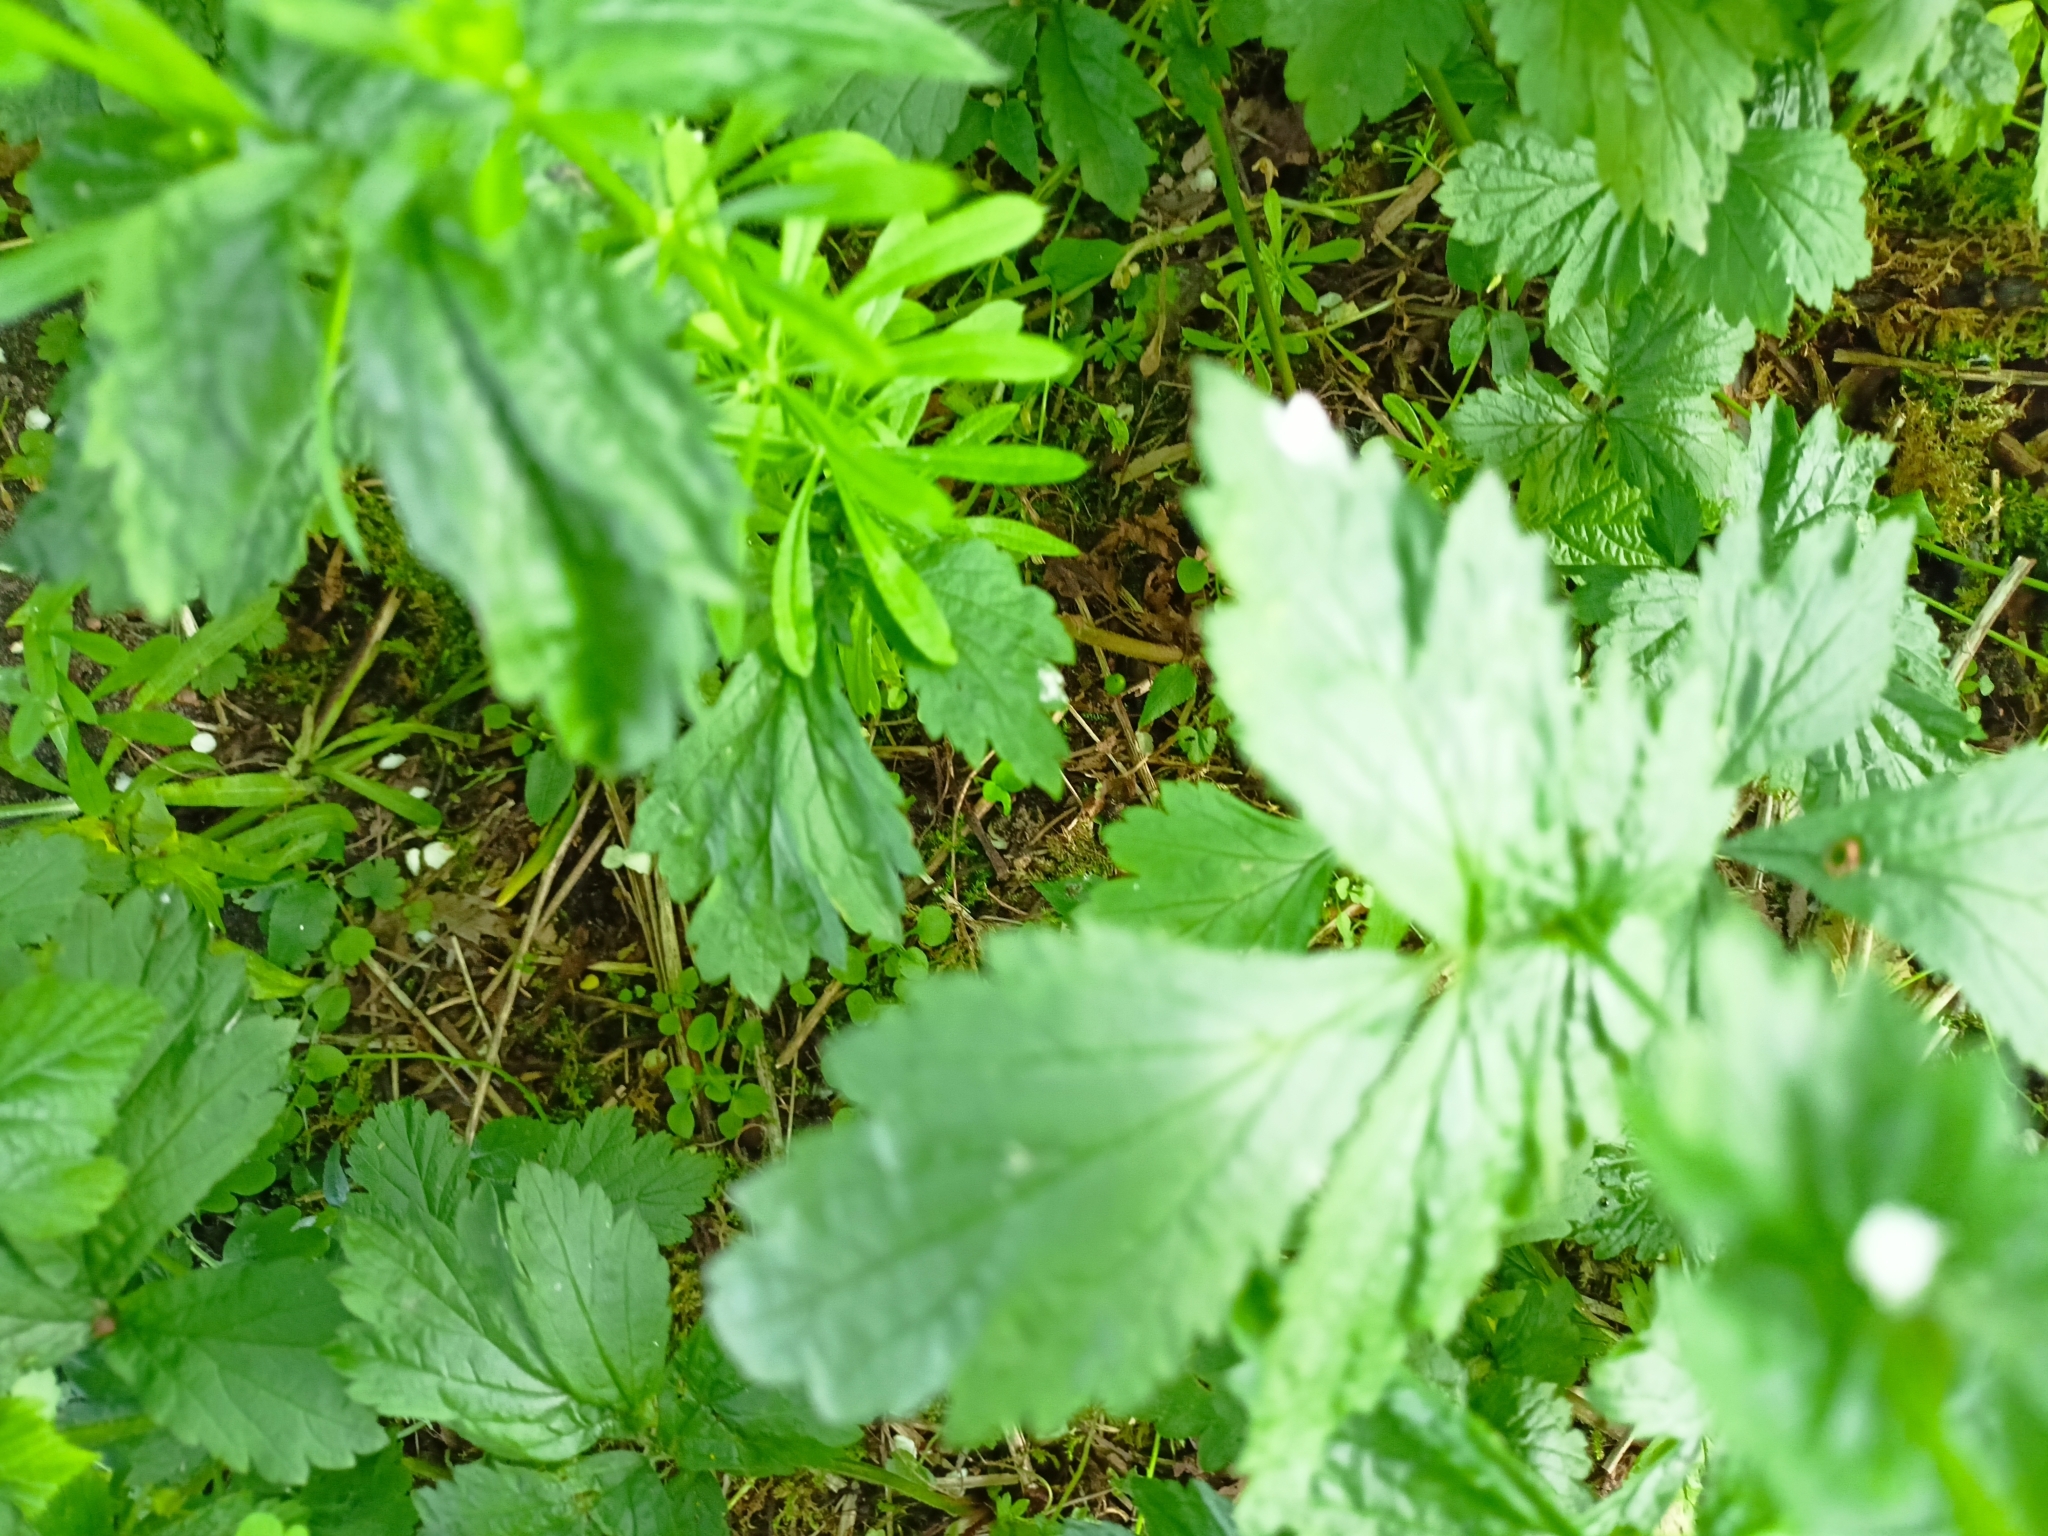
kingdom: Plantae
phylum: Tracheophyta
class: Magnoliopsida
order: Rosales
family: Rosaceae
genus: Geum
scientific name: Geum urbanum
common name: Wood avens
